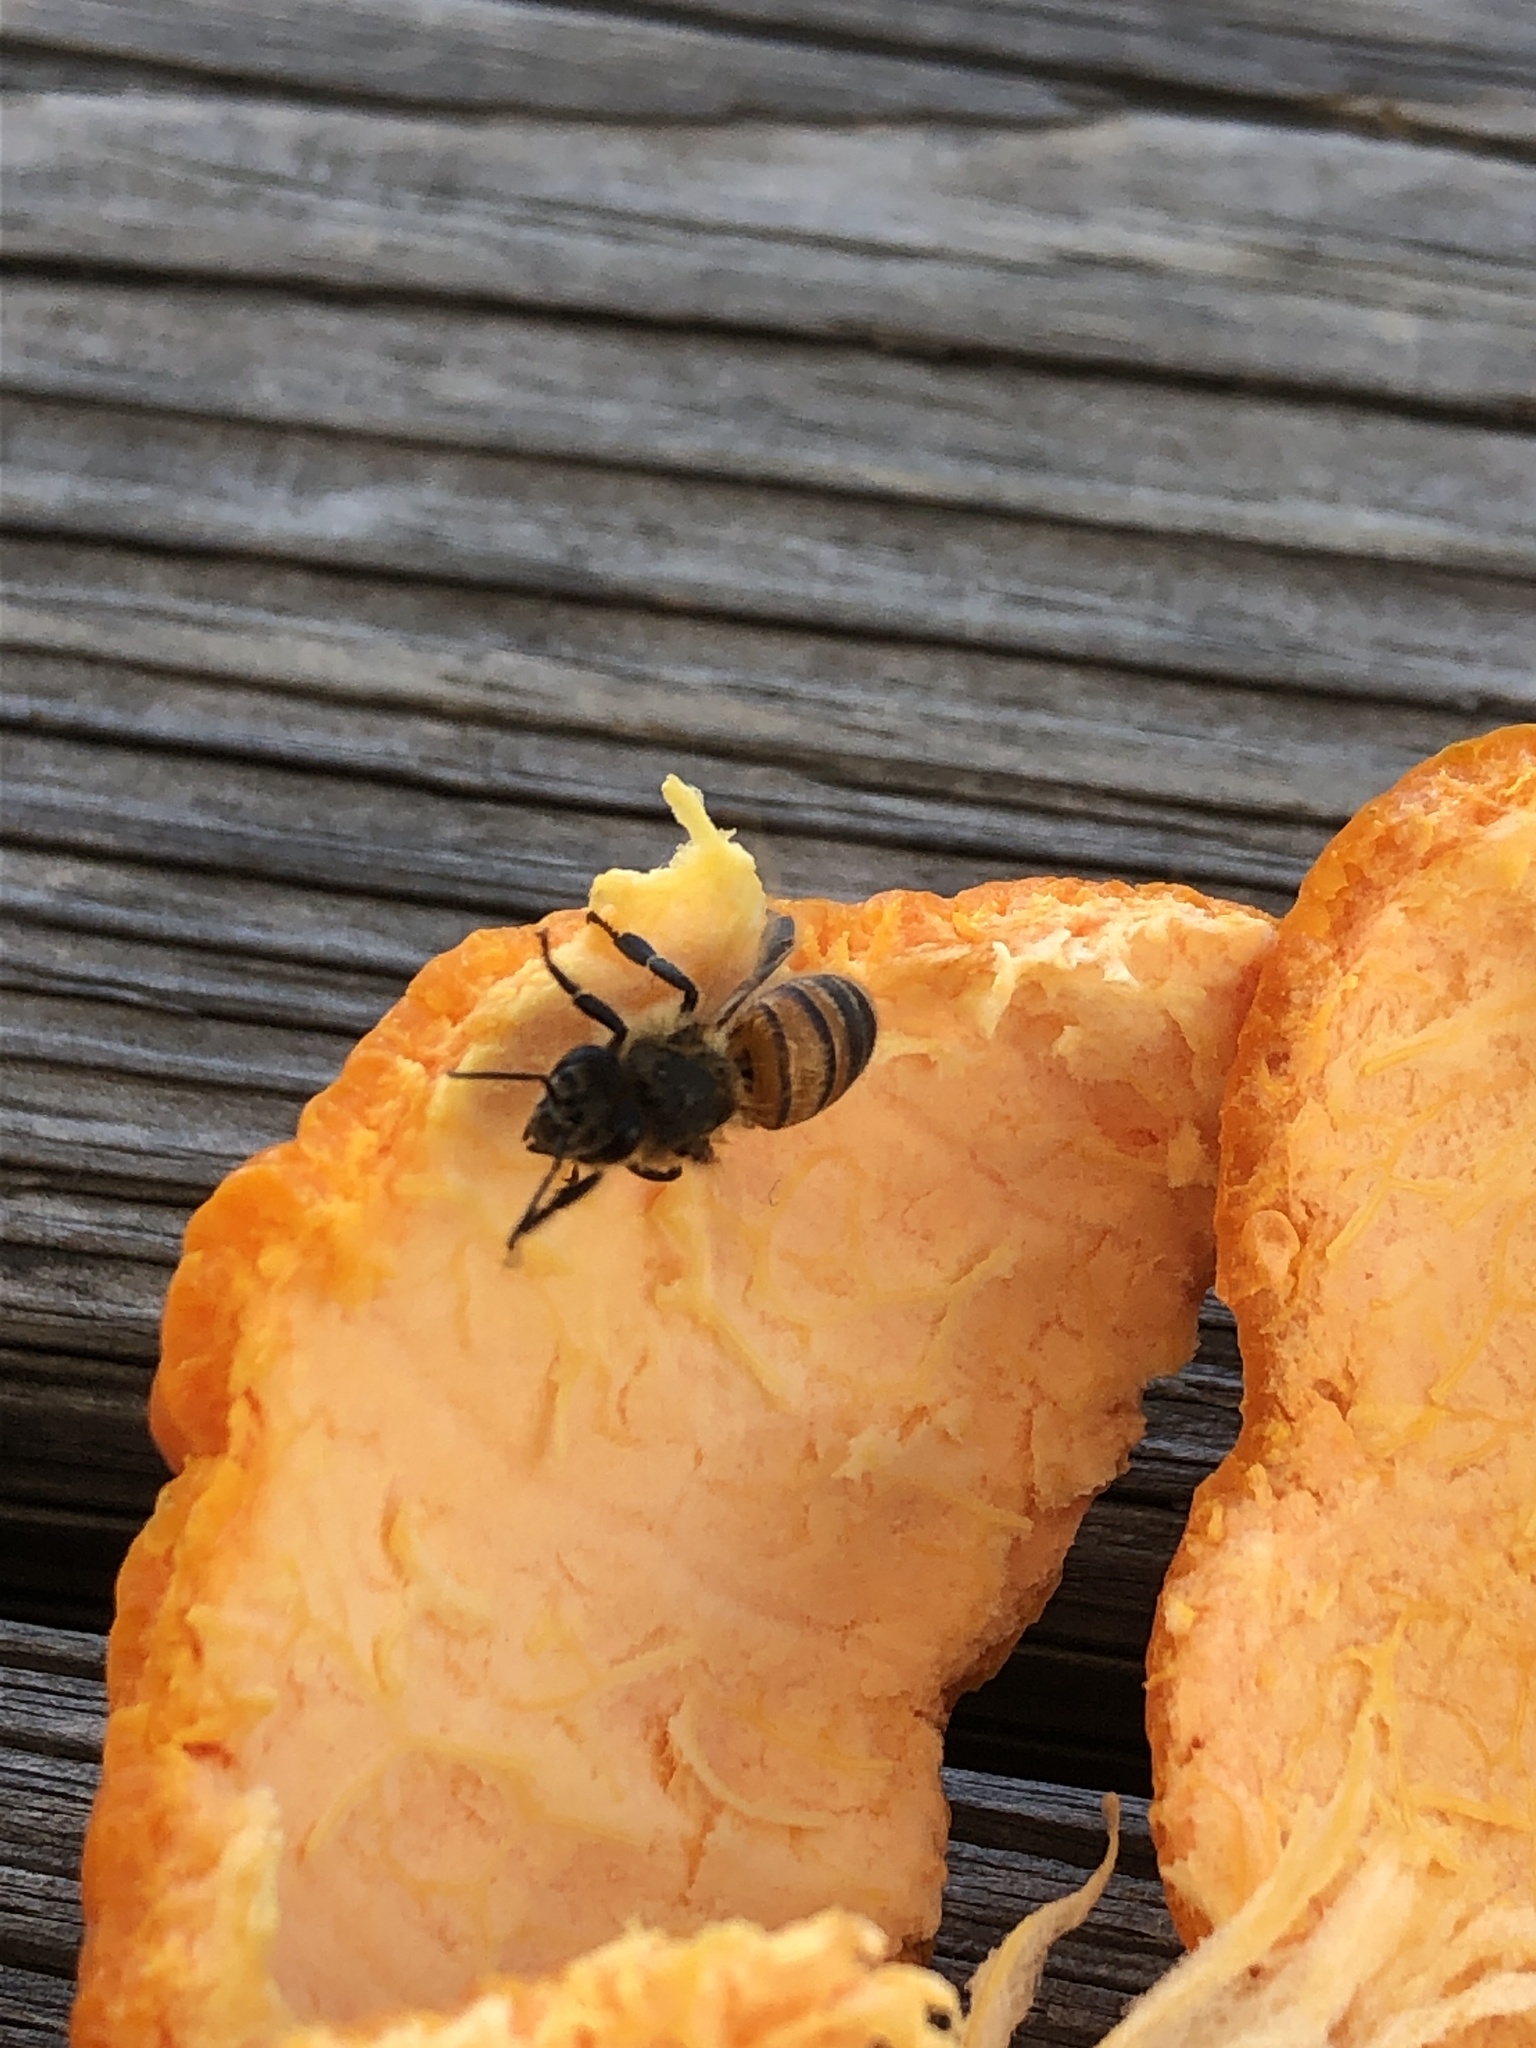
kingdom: Animalia
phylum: Arthropoda
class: Insecta
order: Hymenoptera
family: Apidae
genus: Apis
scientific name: Apis mellifera
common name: Honey bee
